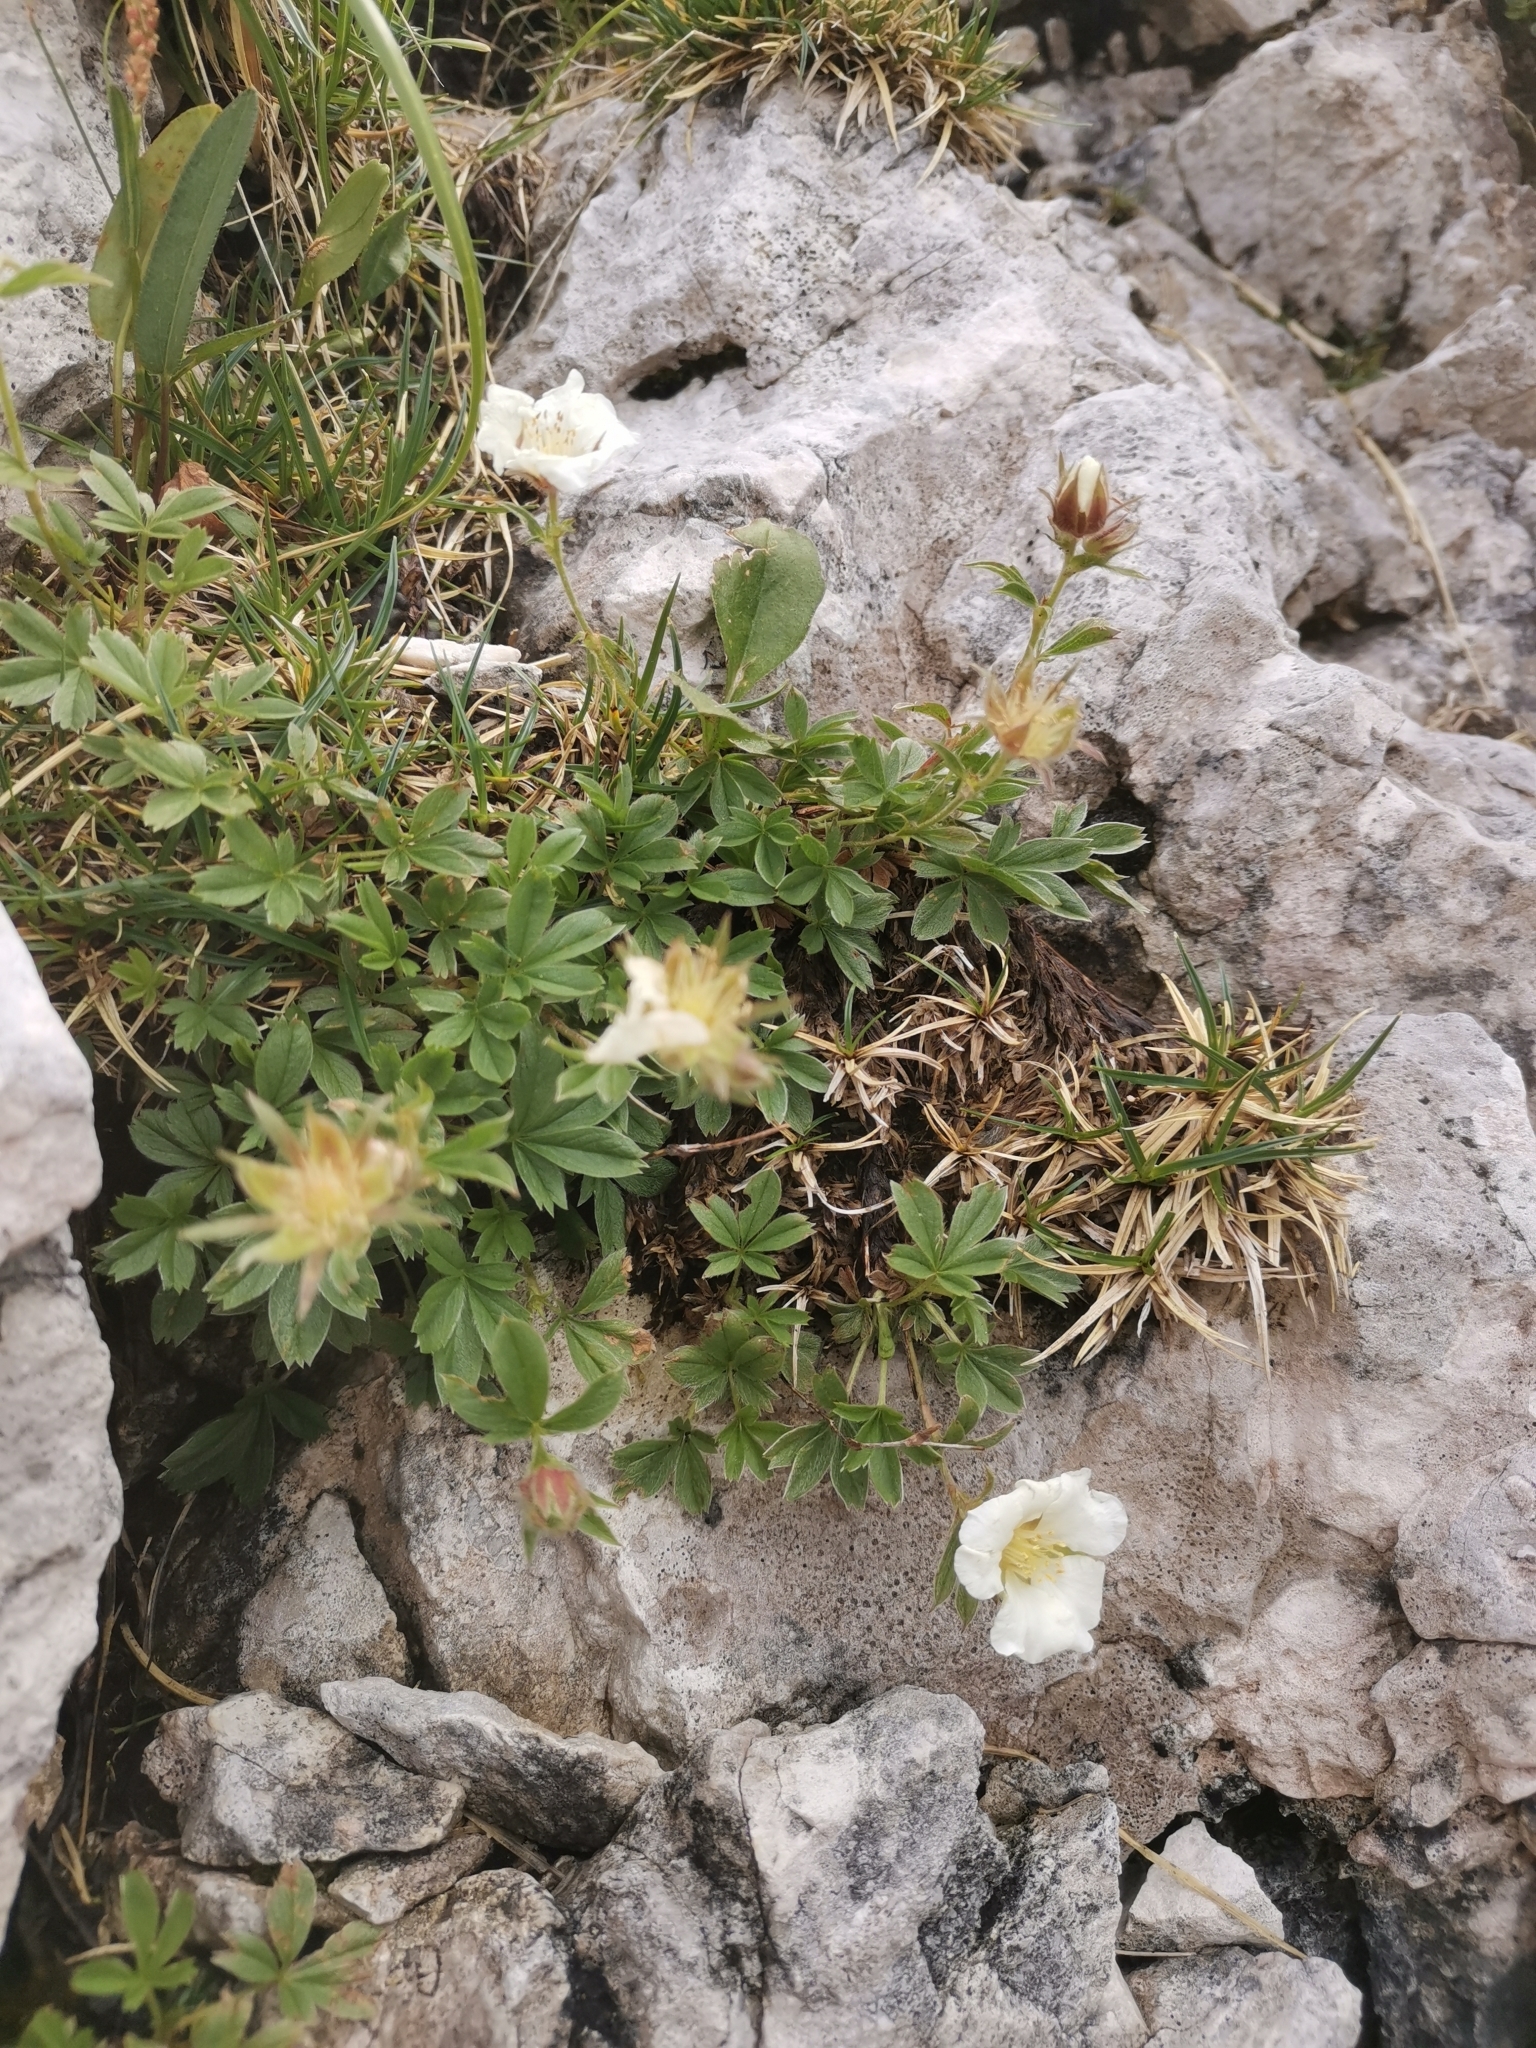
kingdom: Plantae
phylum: Tracheophyta
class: Magnoliopsida
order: Rosales
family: Rosaceae
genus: Potentilla
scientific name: Potentilla clusiana
